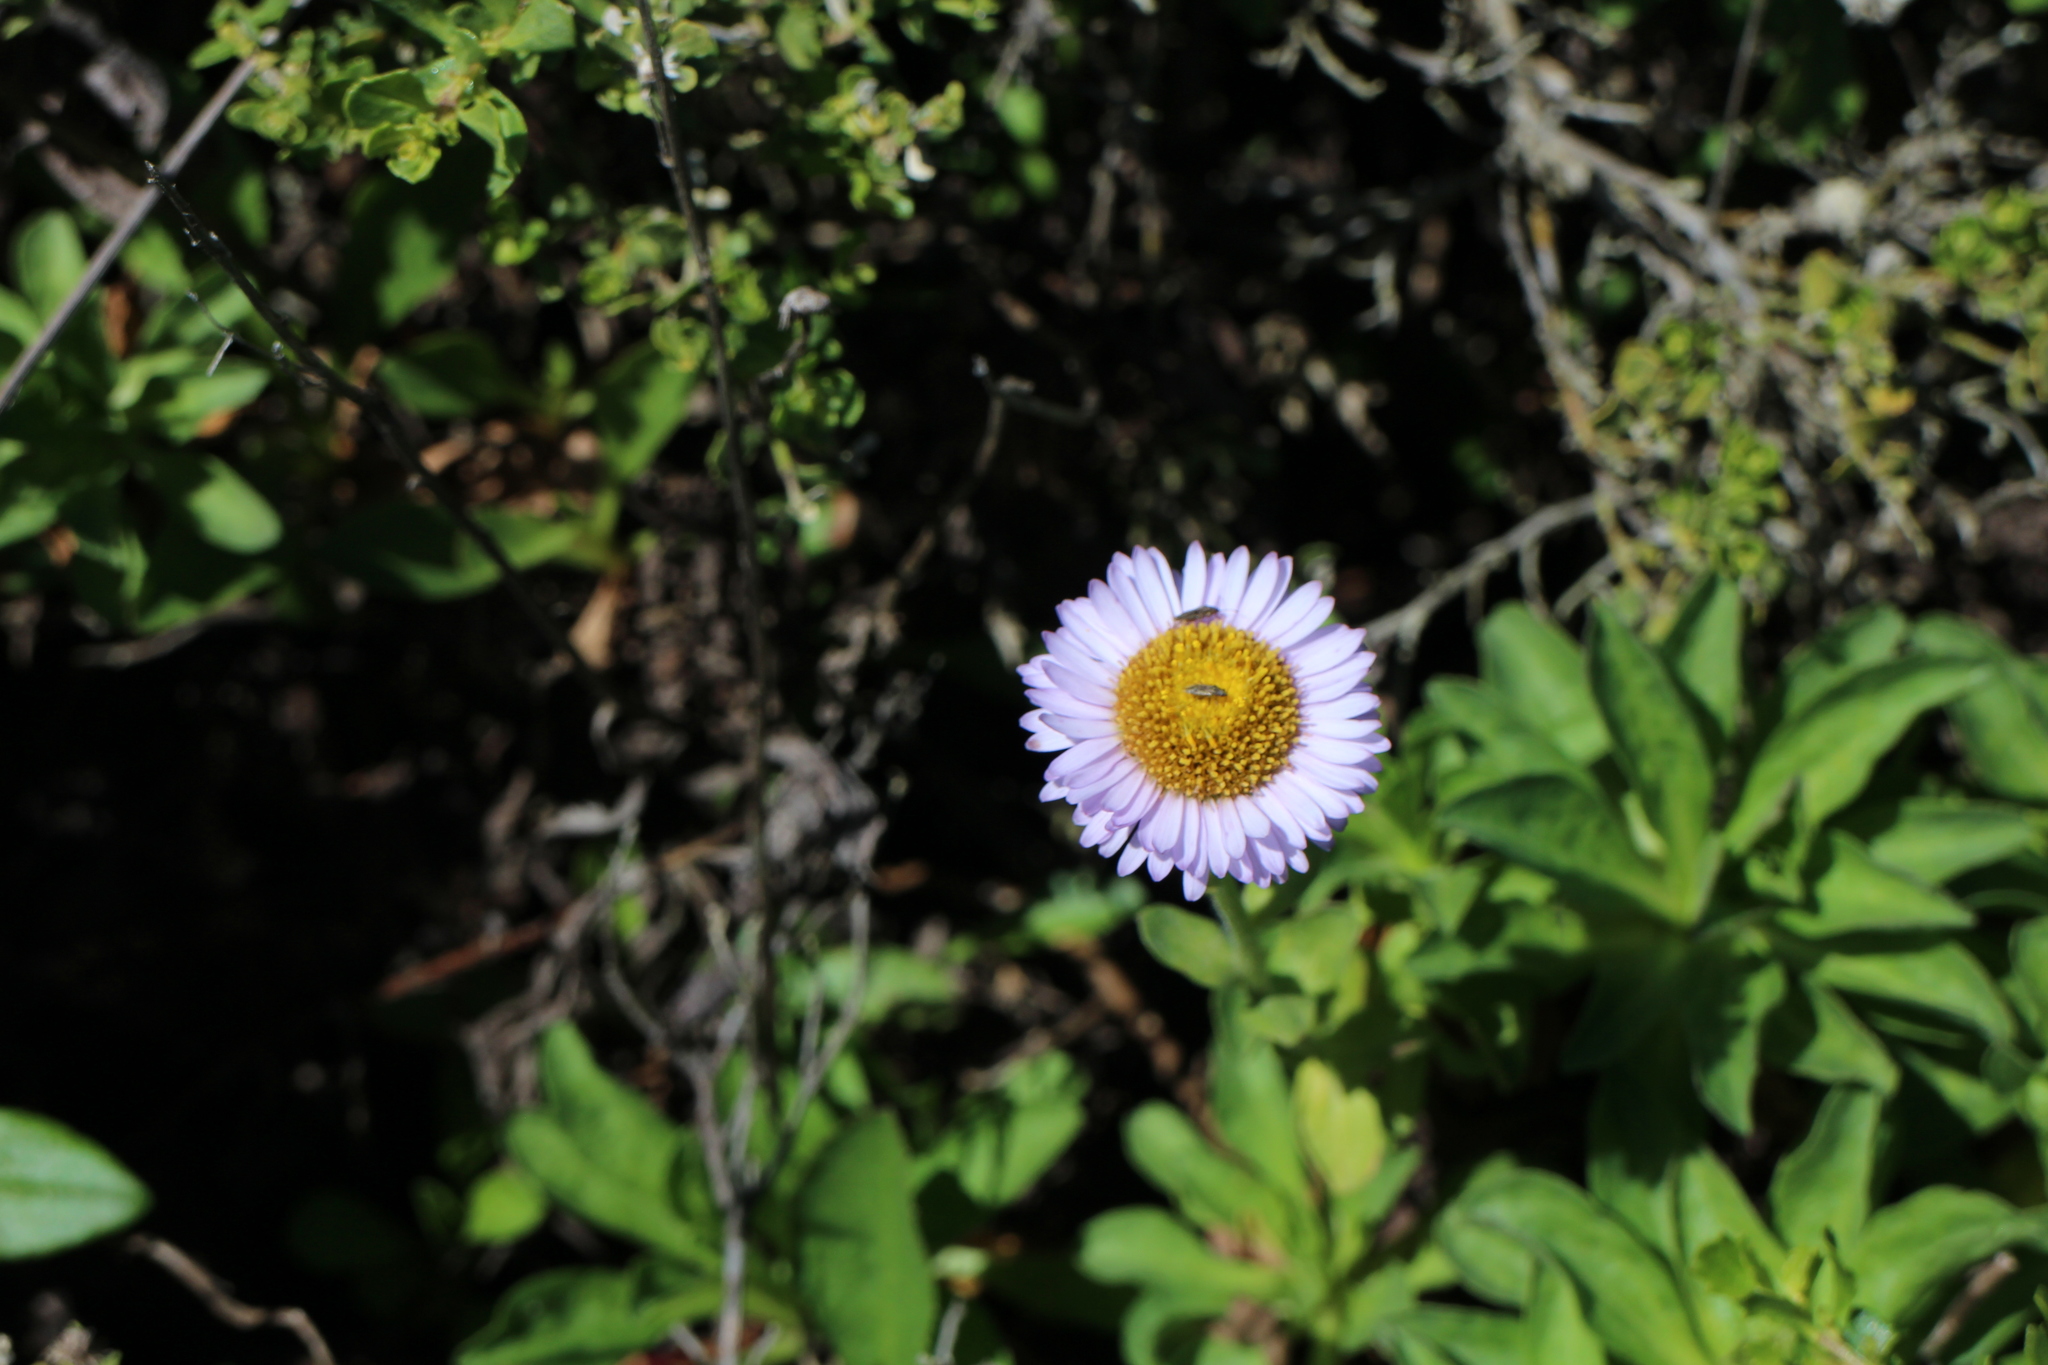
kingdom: Plantae
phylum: Tracheophyta
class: Magnoliopsida
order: Asterales
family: Asteraceae
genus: Erigeron
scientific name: Erigeron glaucus
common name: Seaside daisy
